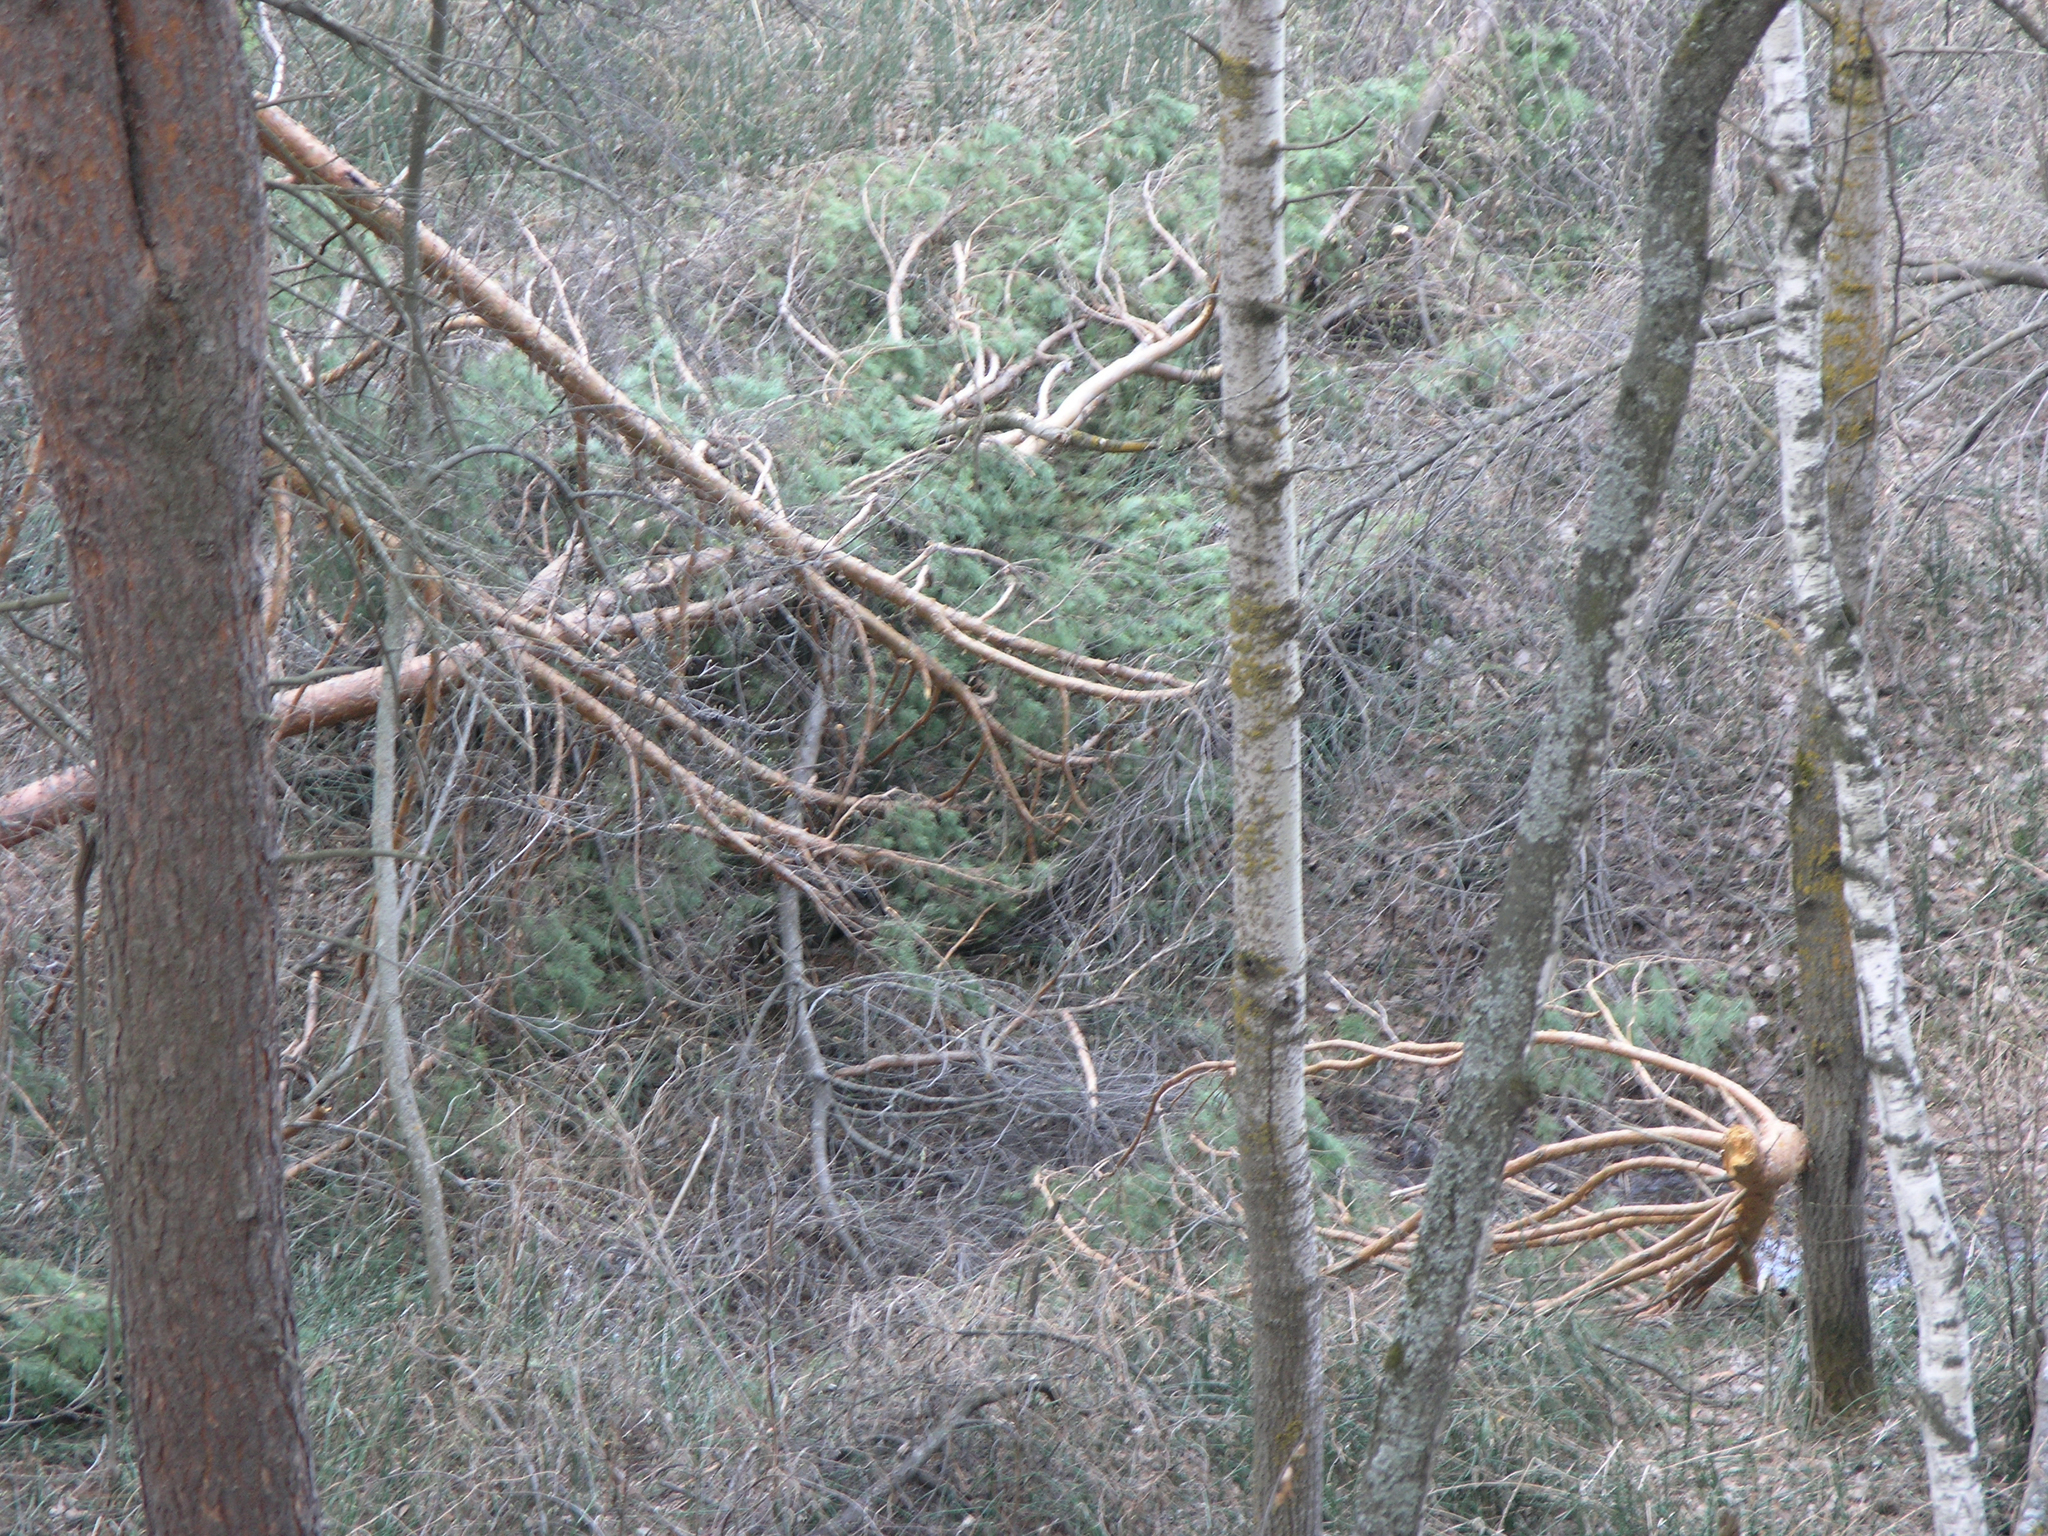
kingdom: Plantae
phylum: Tracheophyta
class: Pinopsida
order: Pinales
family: Pinaceae
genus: Pinus
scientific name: Pinus sylvestris
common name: Scots pine
